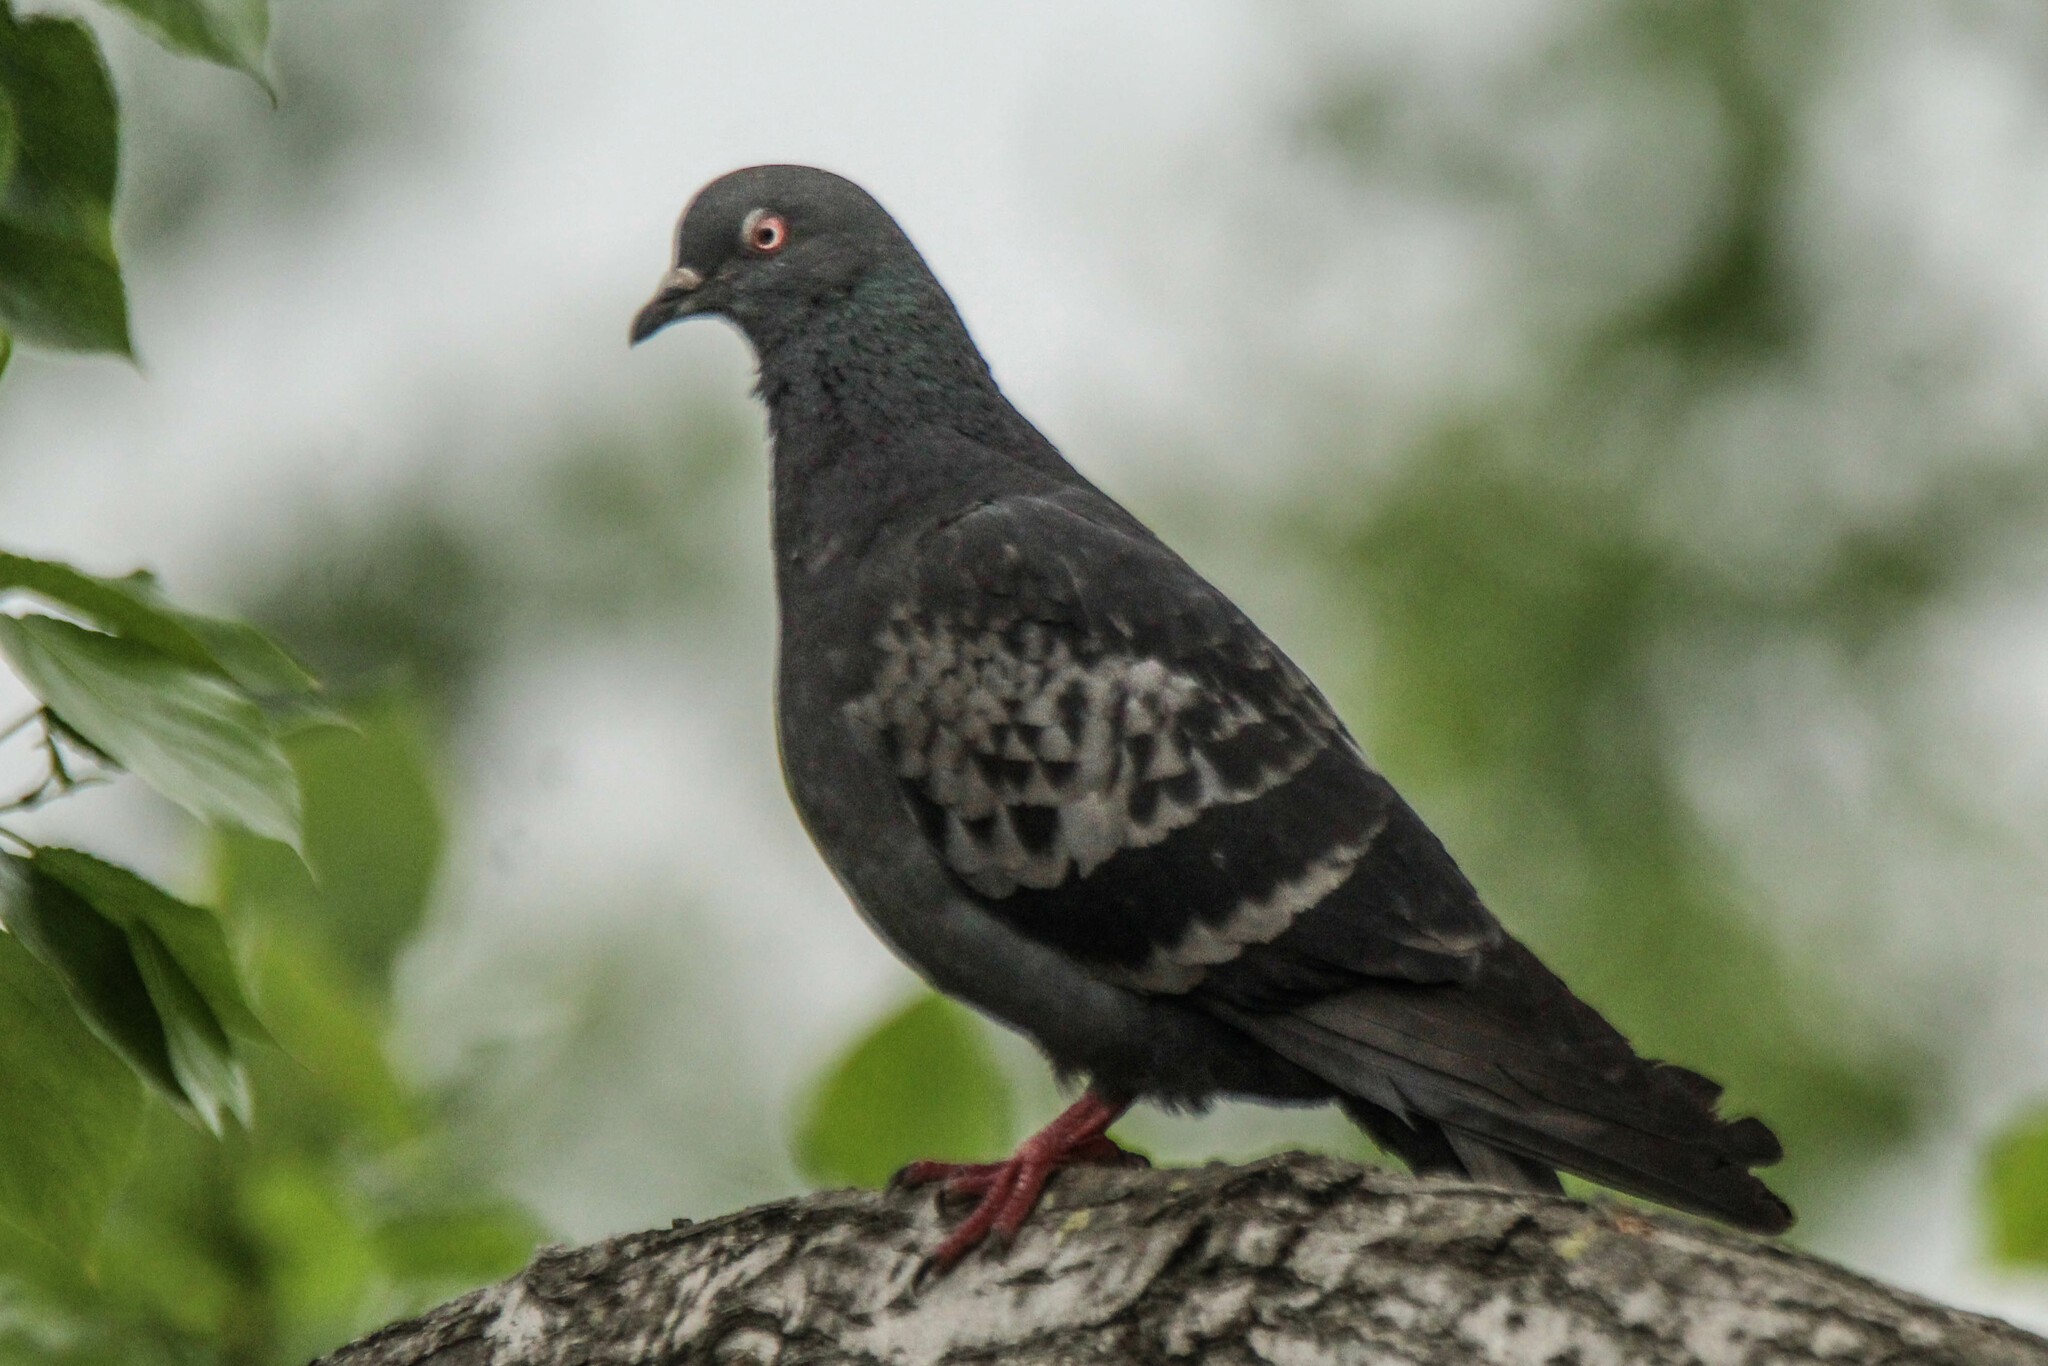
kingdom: Animalia
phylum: Chordata
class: Aves
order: Columbiformes
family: Columbidae
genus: Columba
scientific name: Columba livia
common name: Rock pigeon
